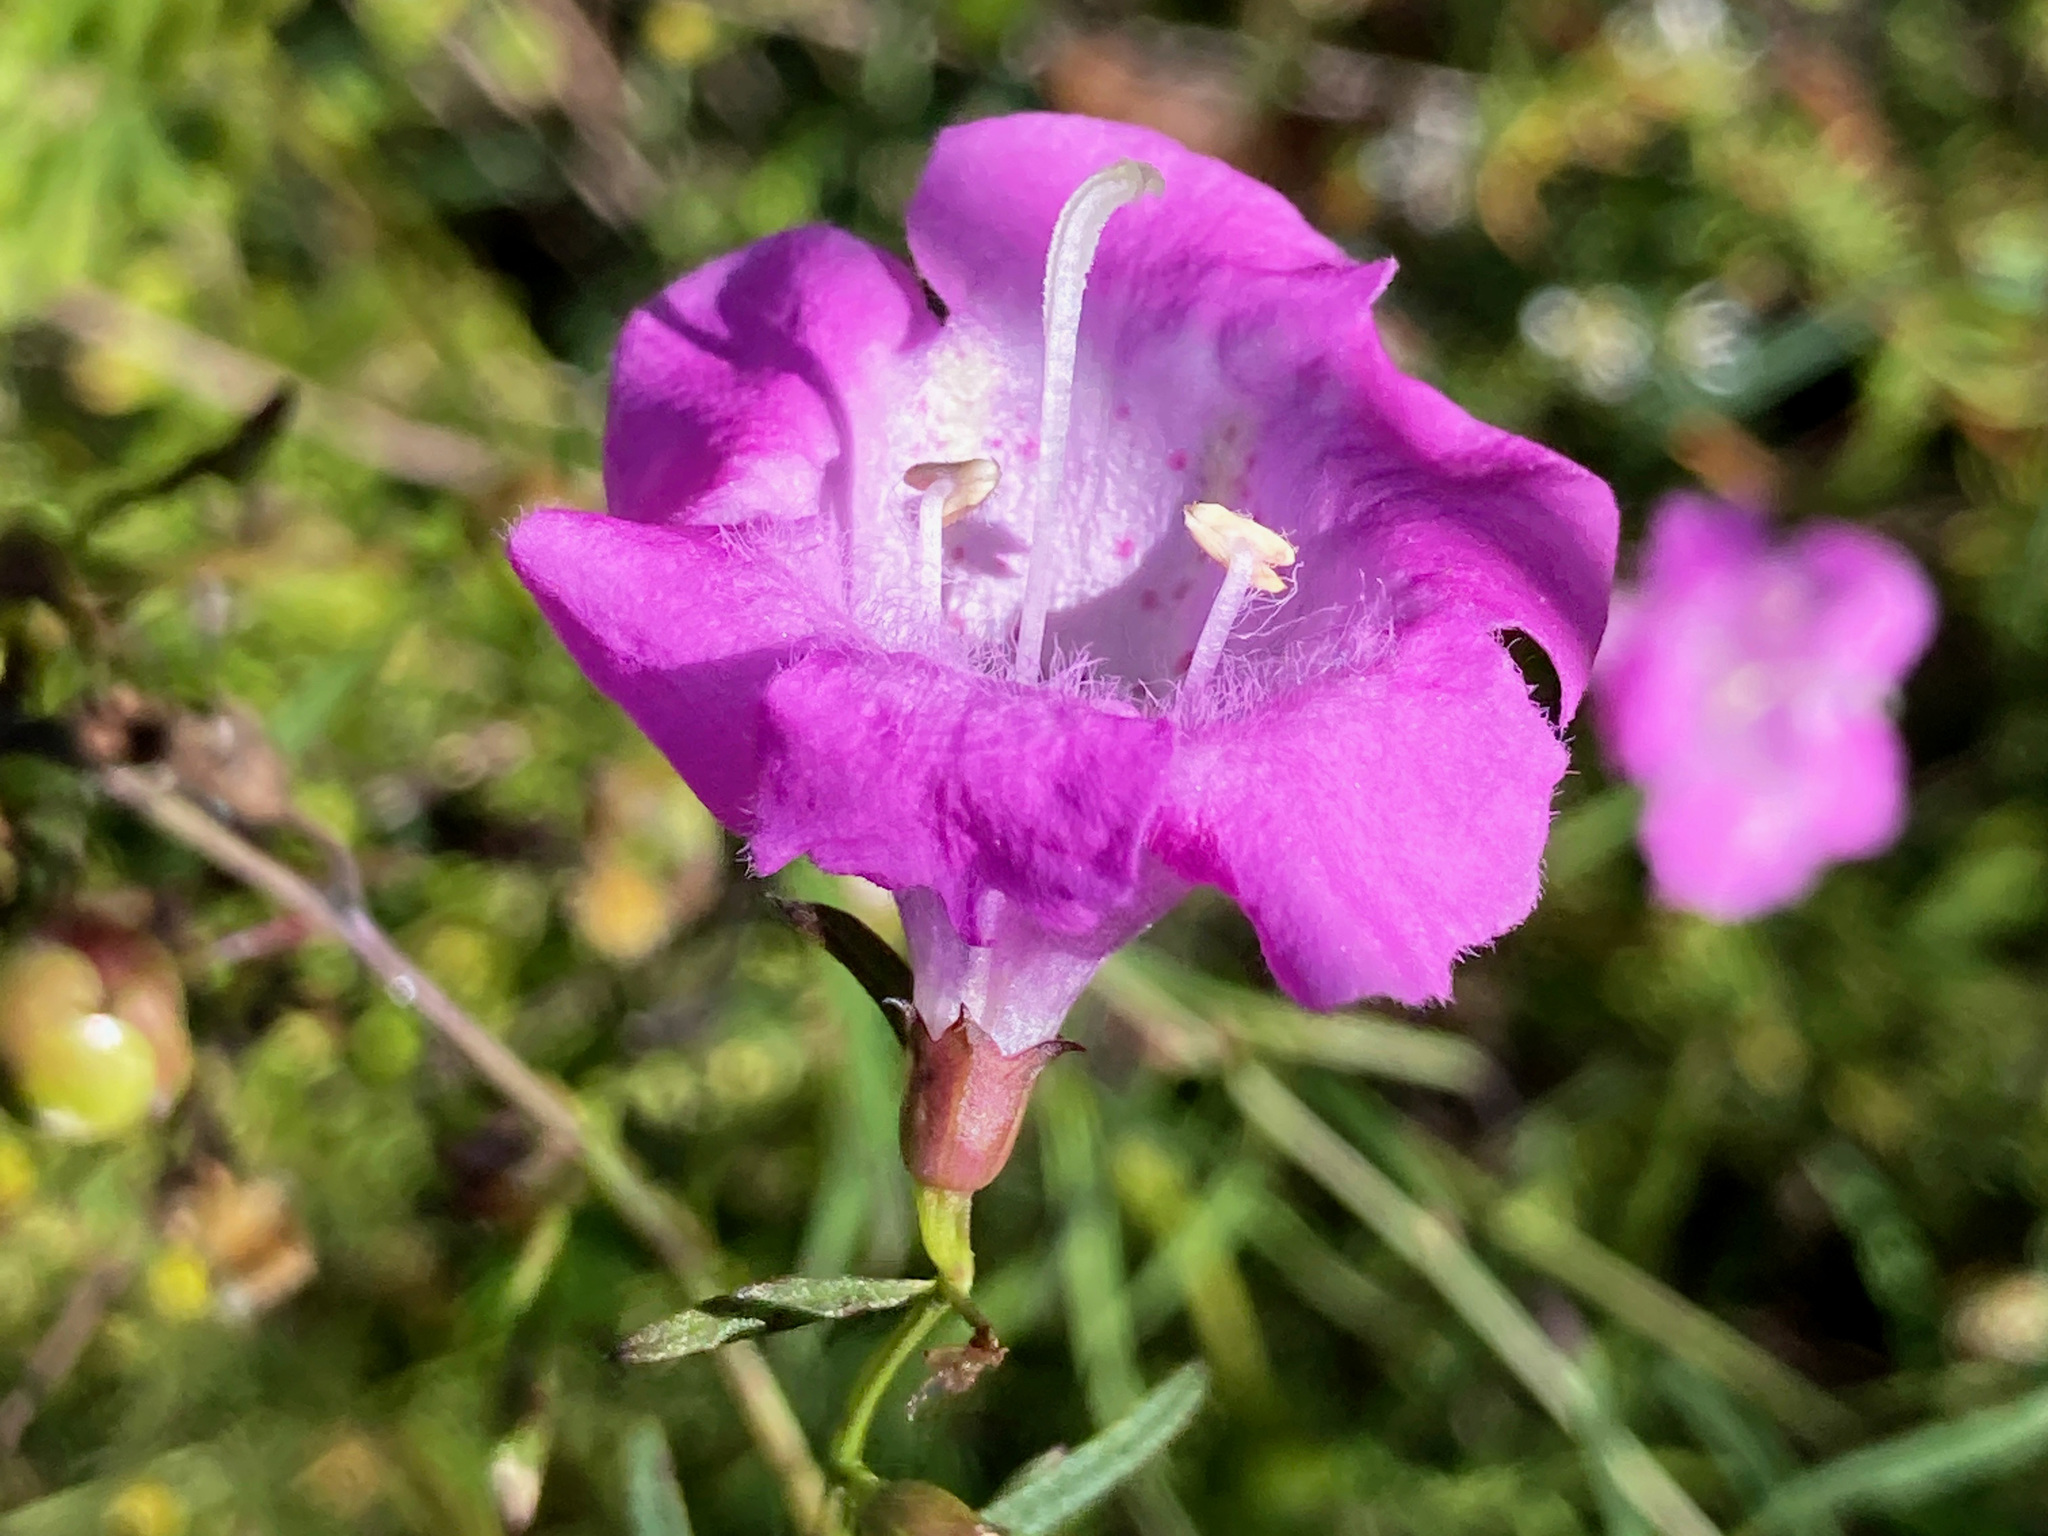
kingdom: Plantae
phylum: Tracheophyta
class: Magnoliopsida
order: Lamiales
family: Orobanchaceae
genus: Agalinis
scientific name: Agalinis purpurea
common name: Purple false foxglove
